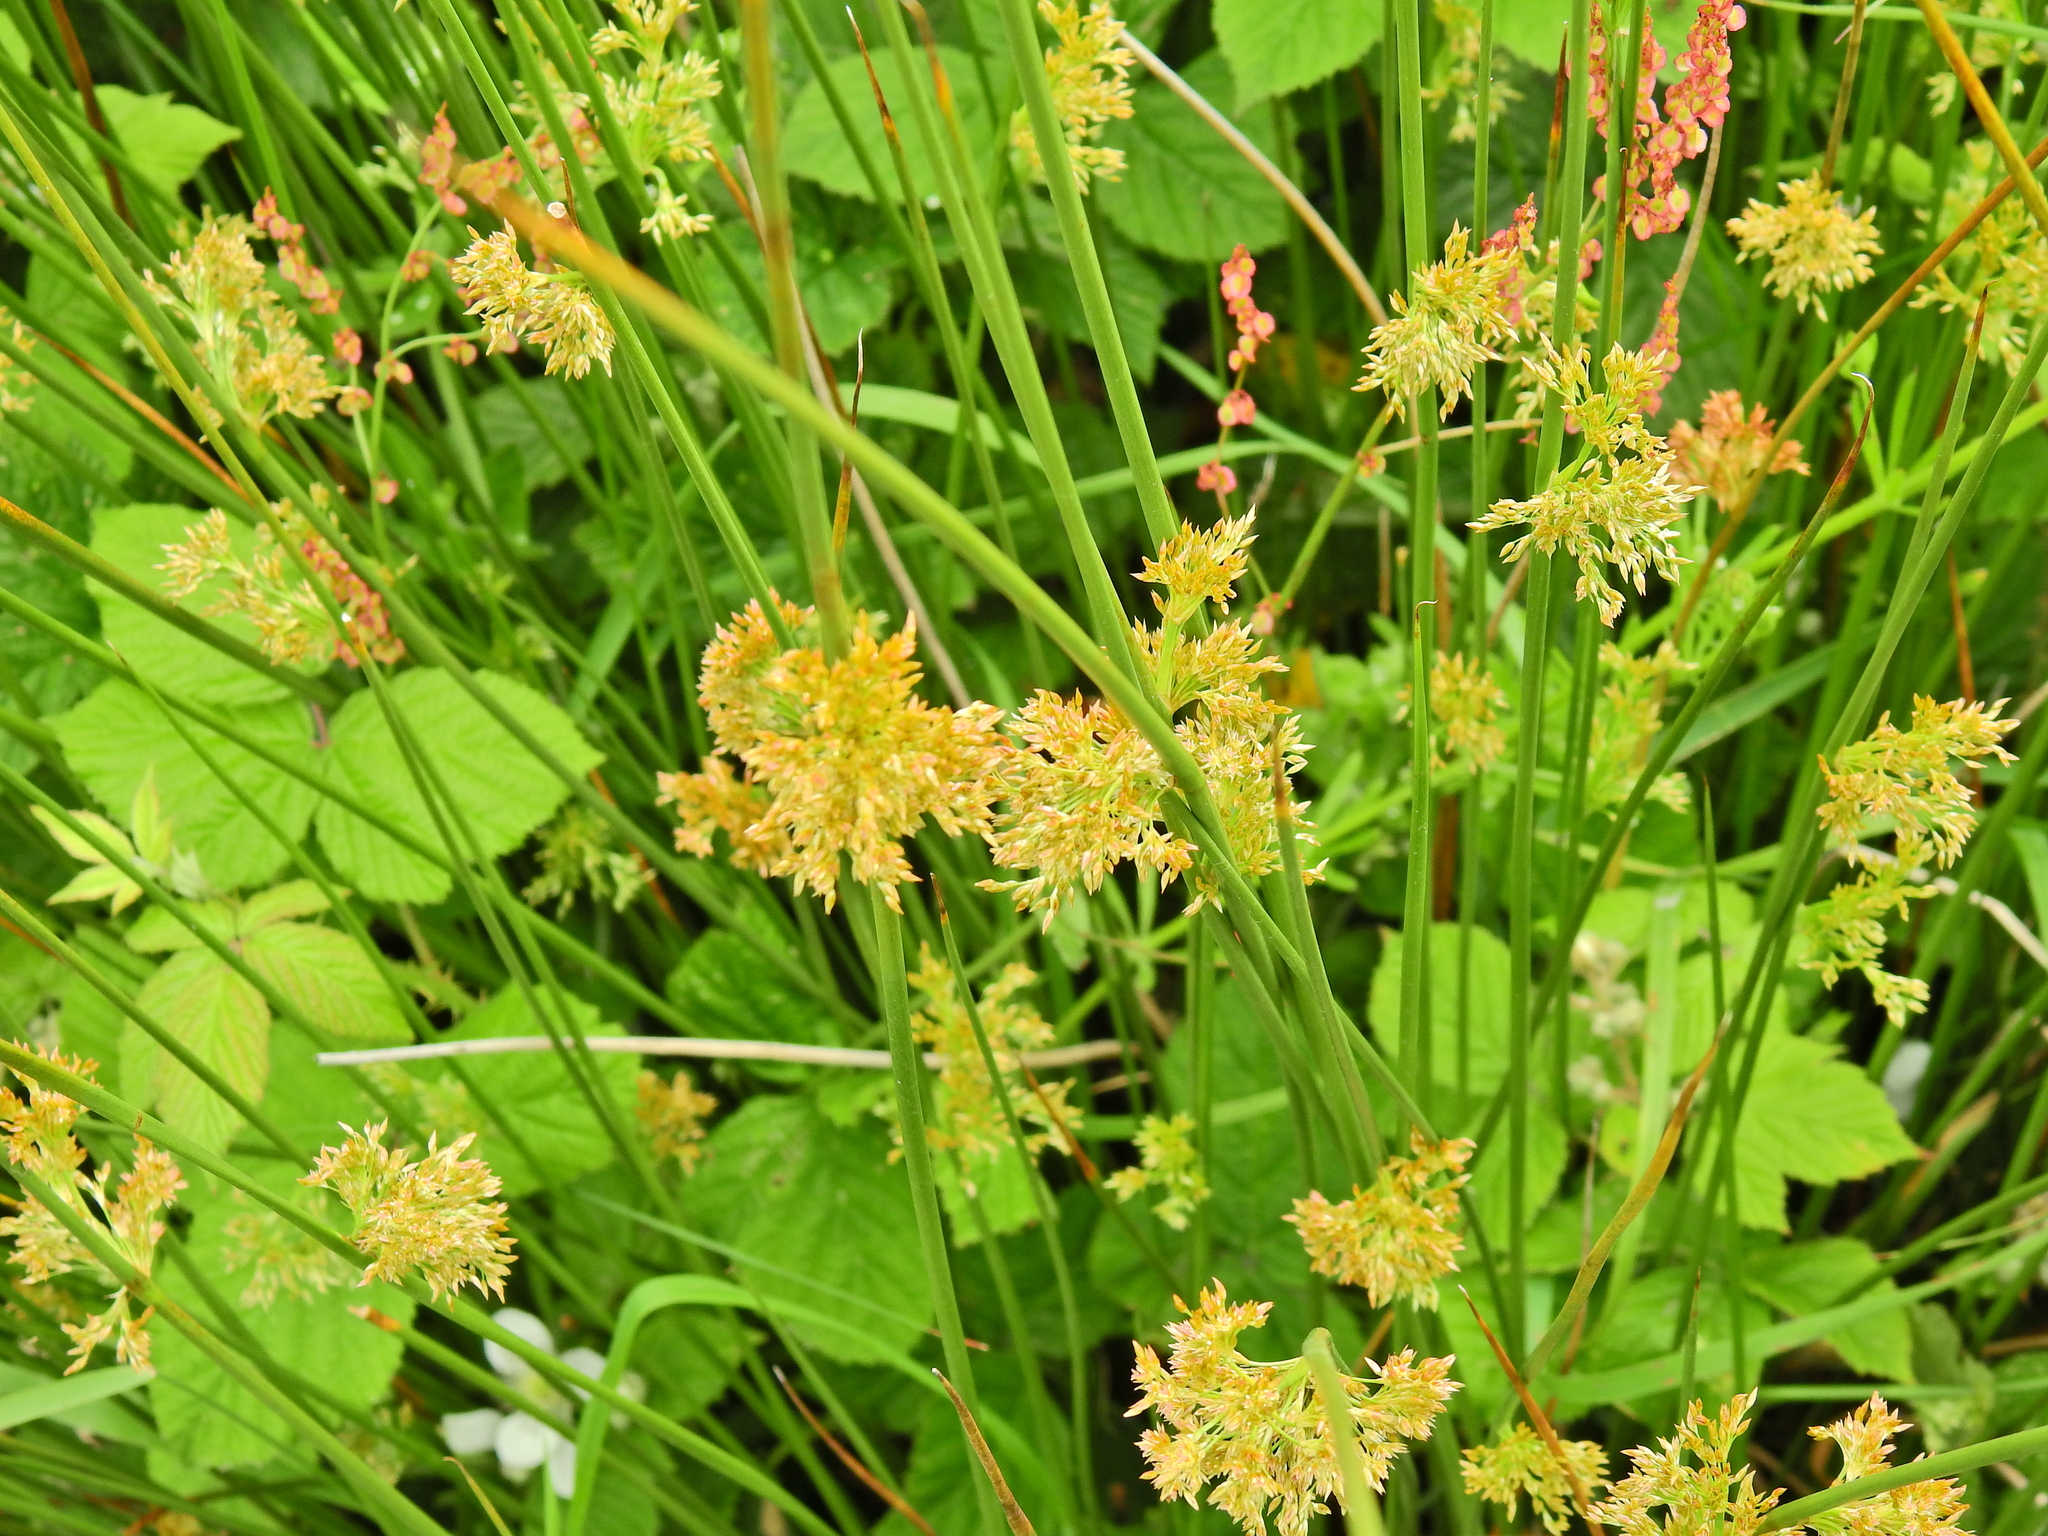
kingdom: Plantae
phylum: Tracheophyta
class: Liliopsida
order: Poales
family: Juncaceae
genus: Juncus
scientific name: Juncus effusus
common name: Soft rush
